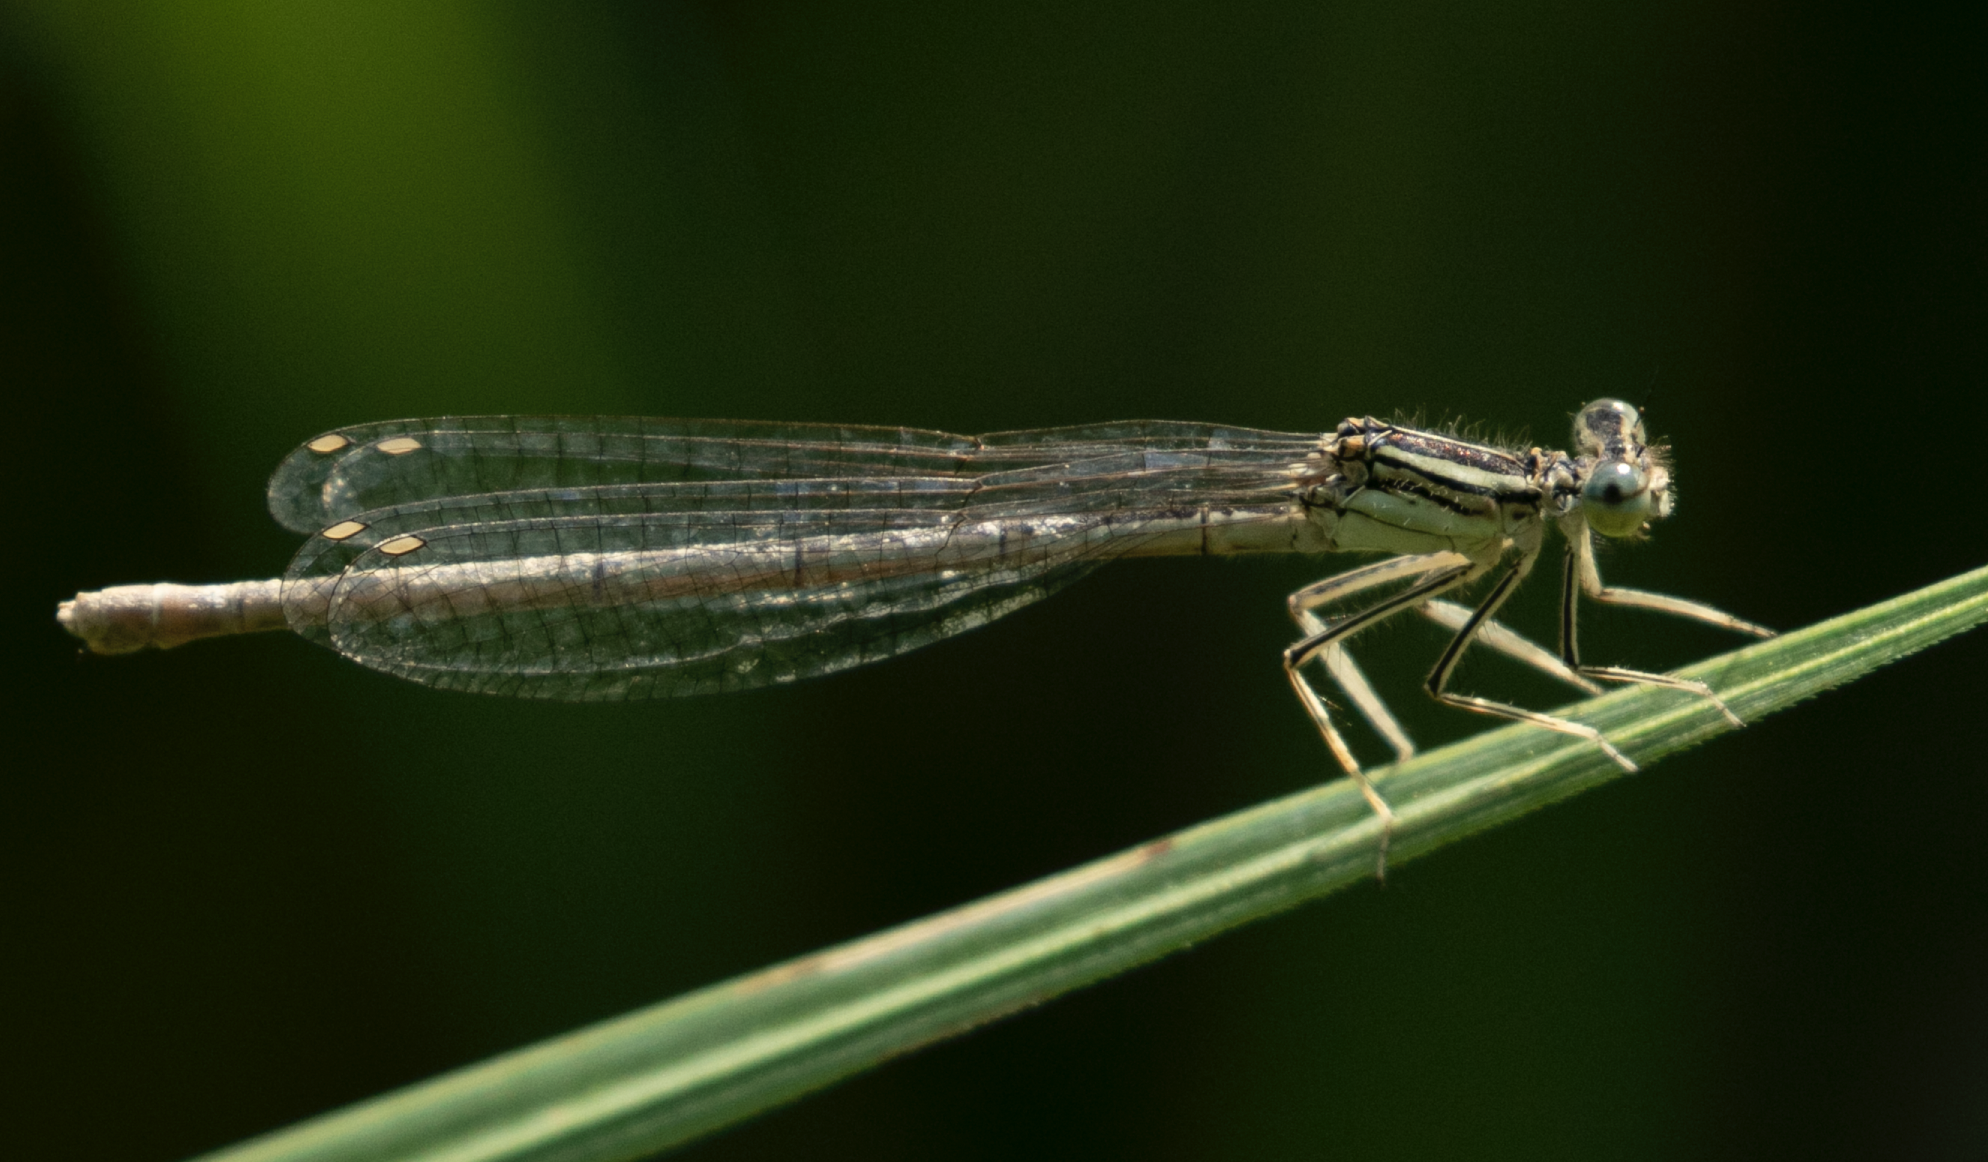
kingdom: Animalia
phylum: Arthropoda
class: Insecta
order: Odonata
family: Platycnemididae
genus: Platycnemis
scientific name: Platycnemis pennipes
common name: White-legged damselfly
